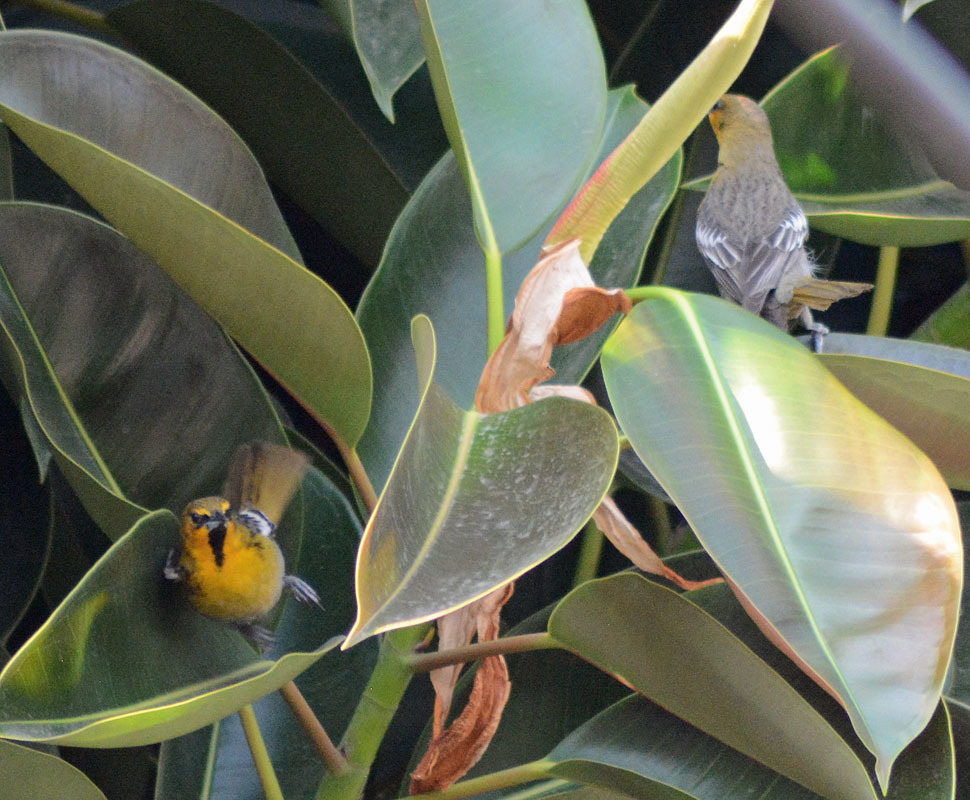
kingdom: Animalia
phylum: Chordata
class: Aves
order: Passeriformes
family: Icteridae
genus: Icterus
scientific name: Icterus abeillei
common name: Black-backed oriole
